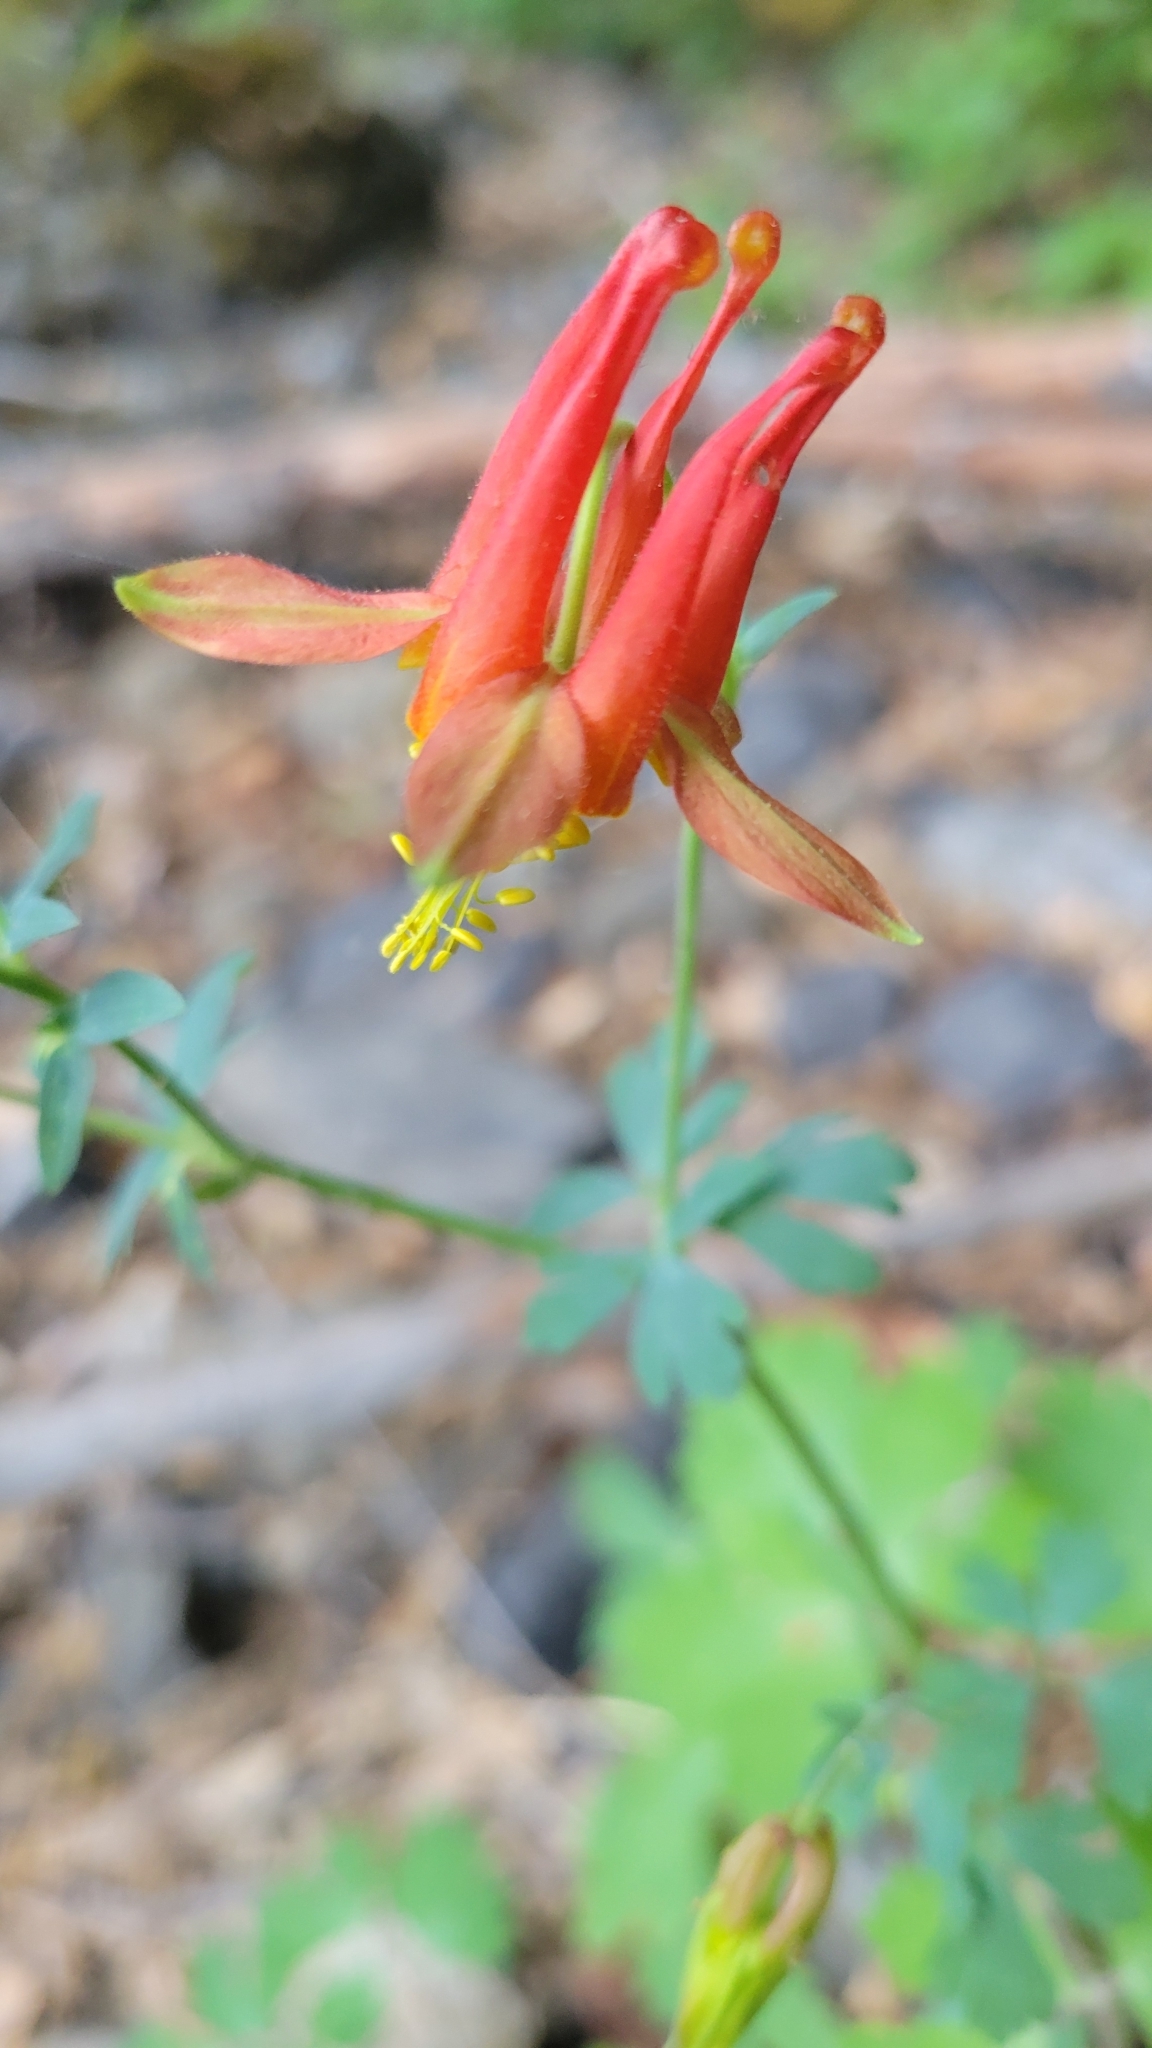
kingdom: Plantae
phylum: Tracheophyta
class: Magnoliopsida
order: Ranunculales
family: Ranunculaceae
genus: Aquilegia
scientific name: Aquilegia formosa
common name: Sitka columbine
